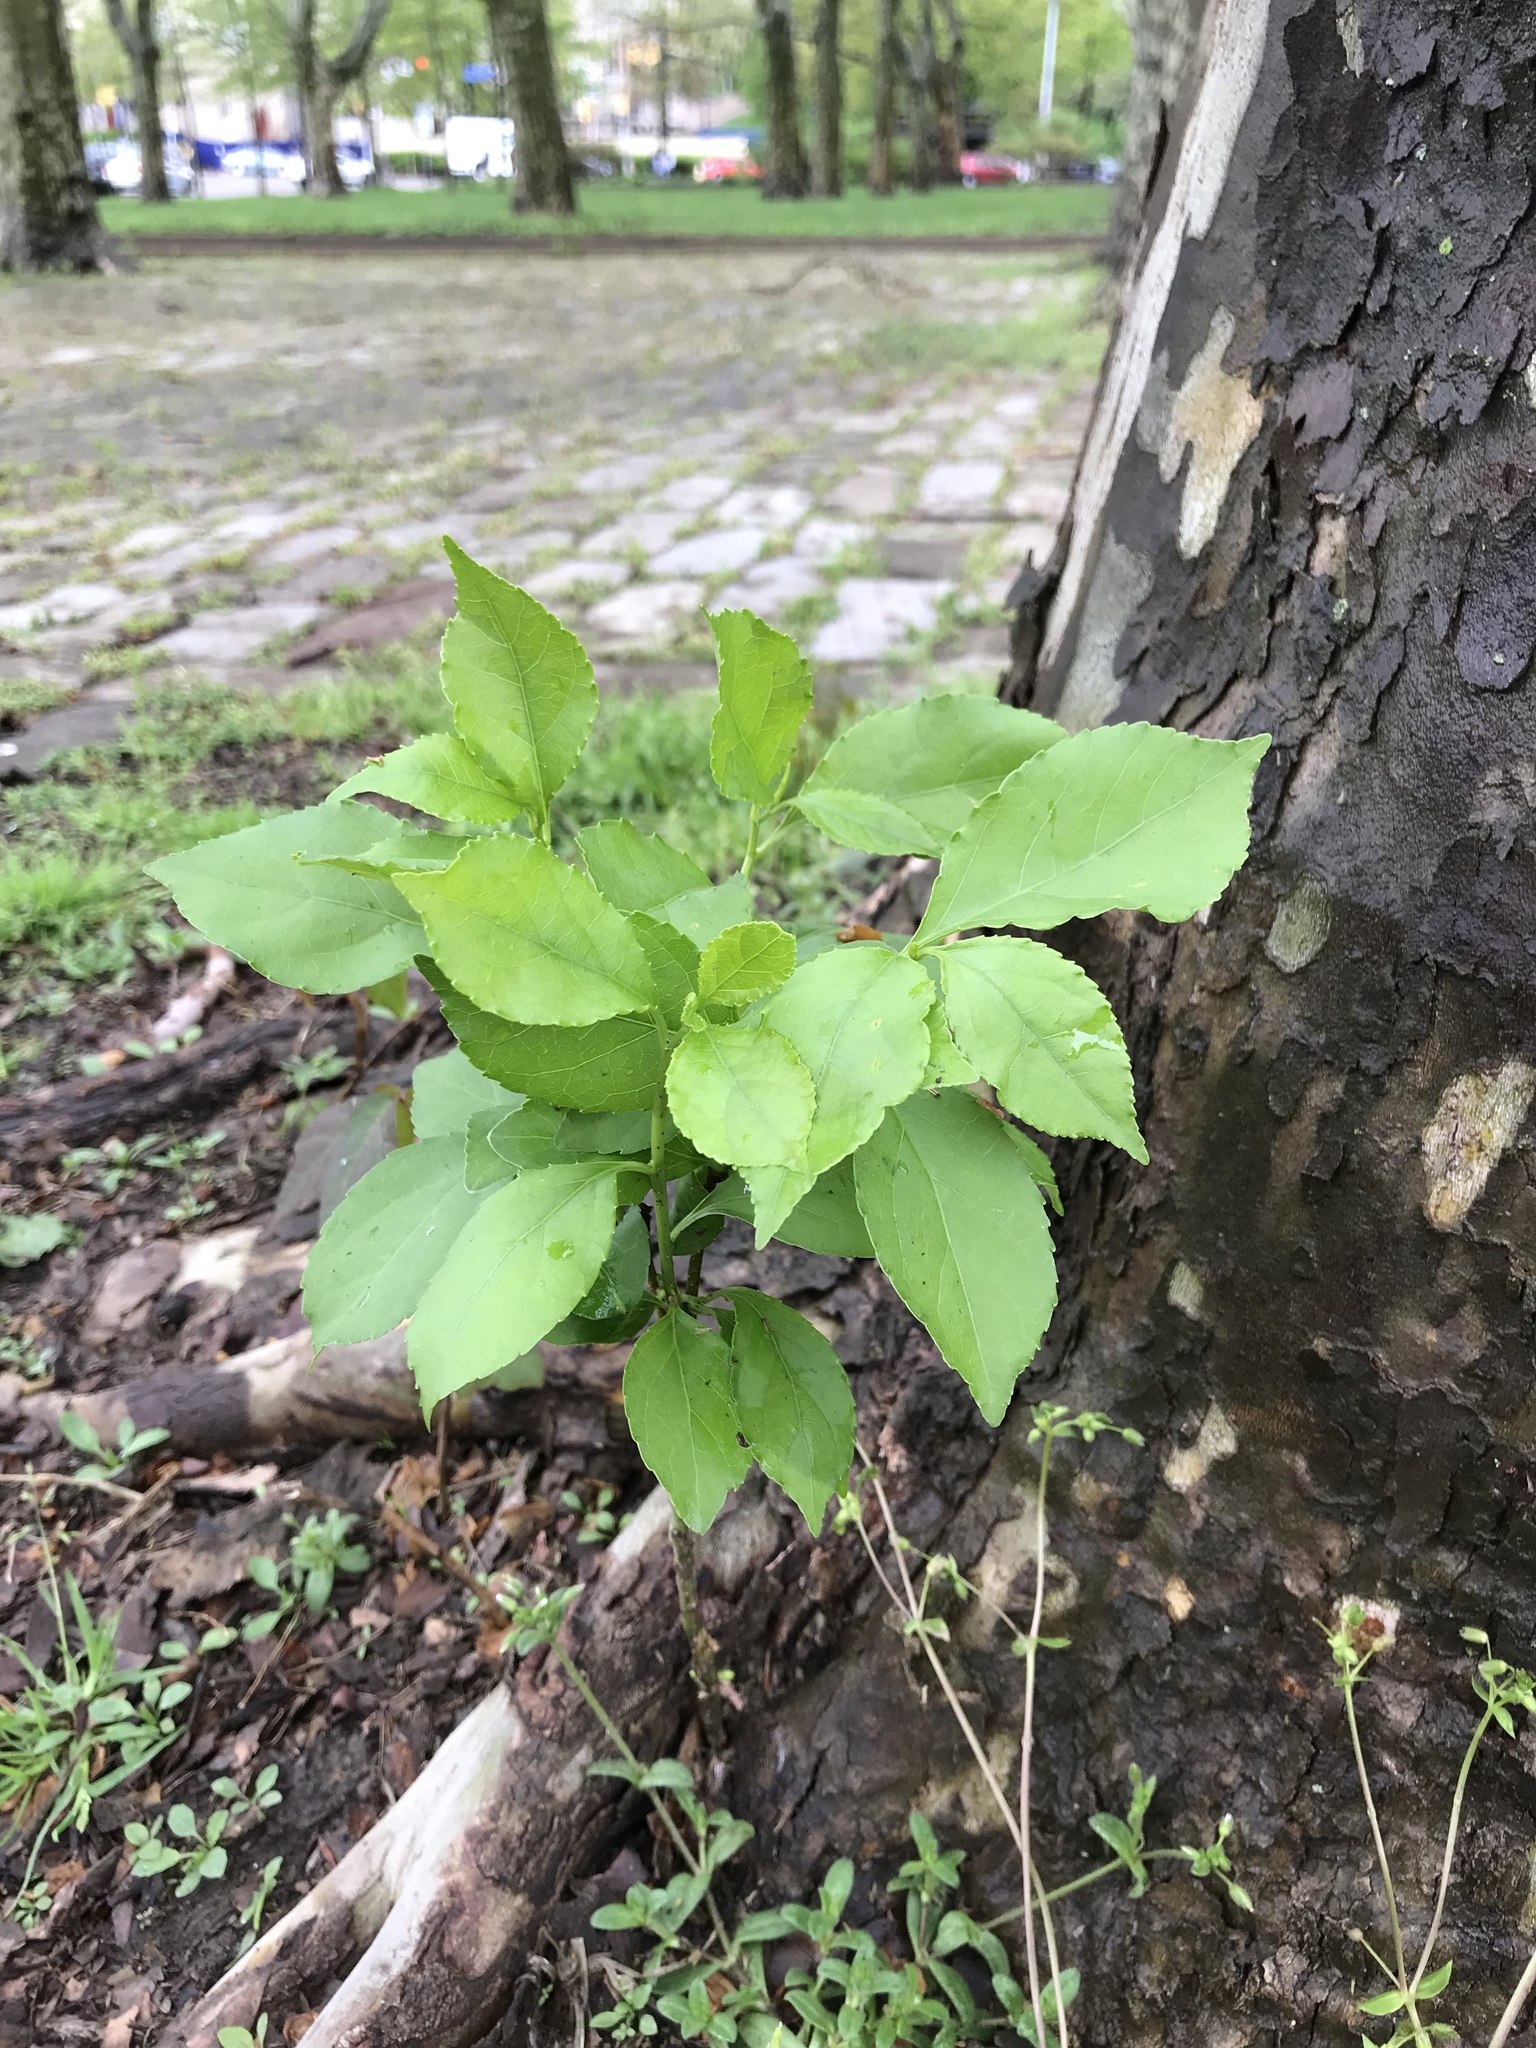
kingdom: Plantae
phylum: Tracheophyta
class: Magnoliopsida
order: Celastrales
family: Celastraceae
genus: Celastrus
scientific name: Celastrus orbiculatus
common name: Oriental bittersweet
